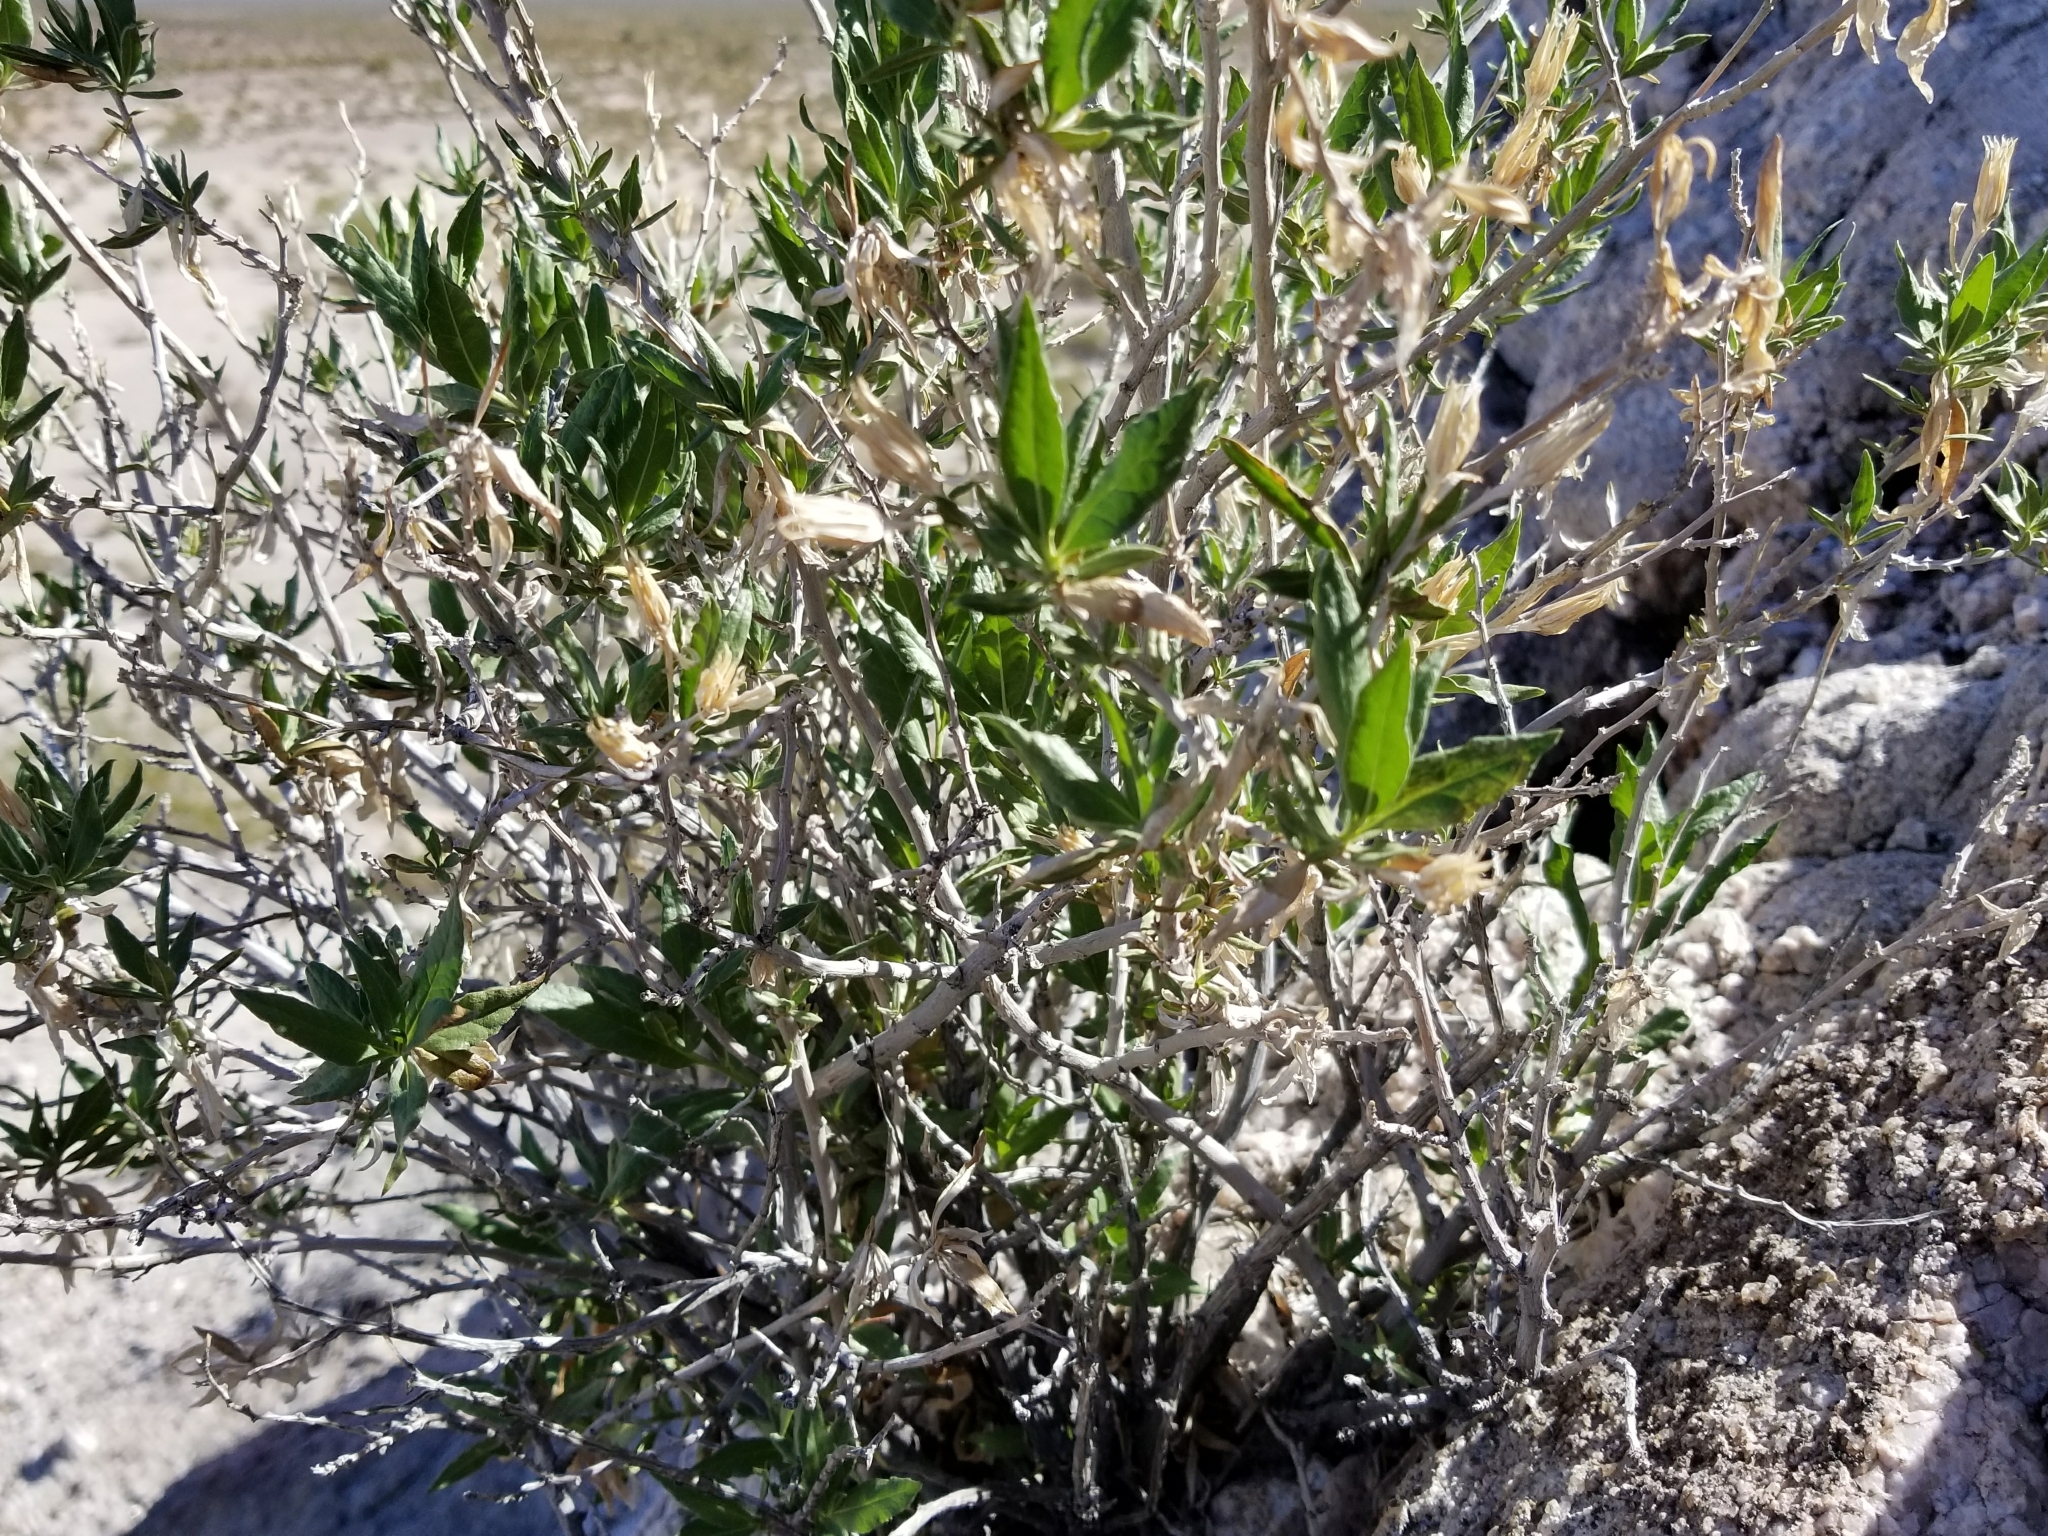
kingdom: Plantae
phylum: Tracheophyta
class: Magnoliopsida
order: Asterales
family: Asteraceae
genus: Trixis
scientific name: Trixis californica
